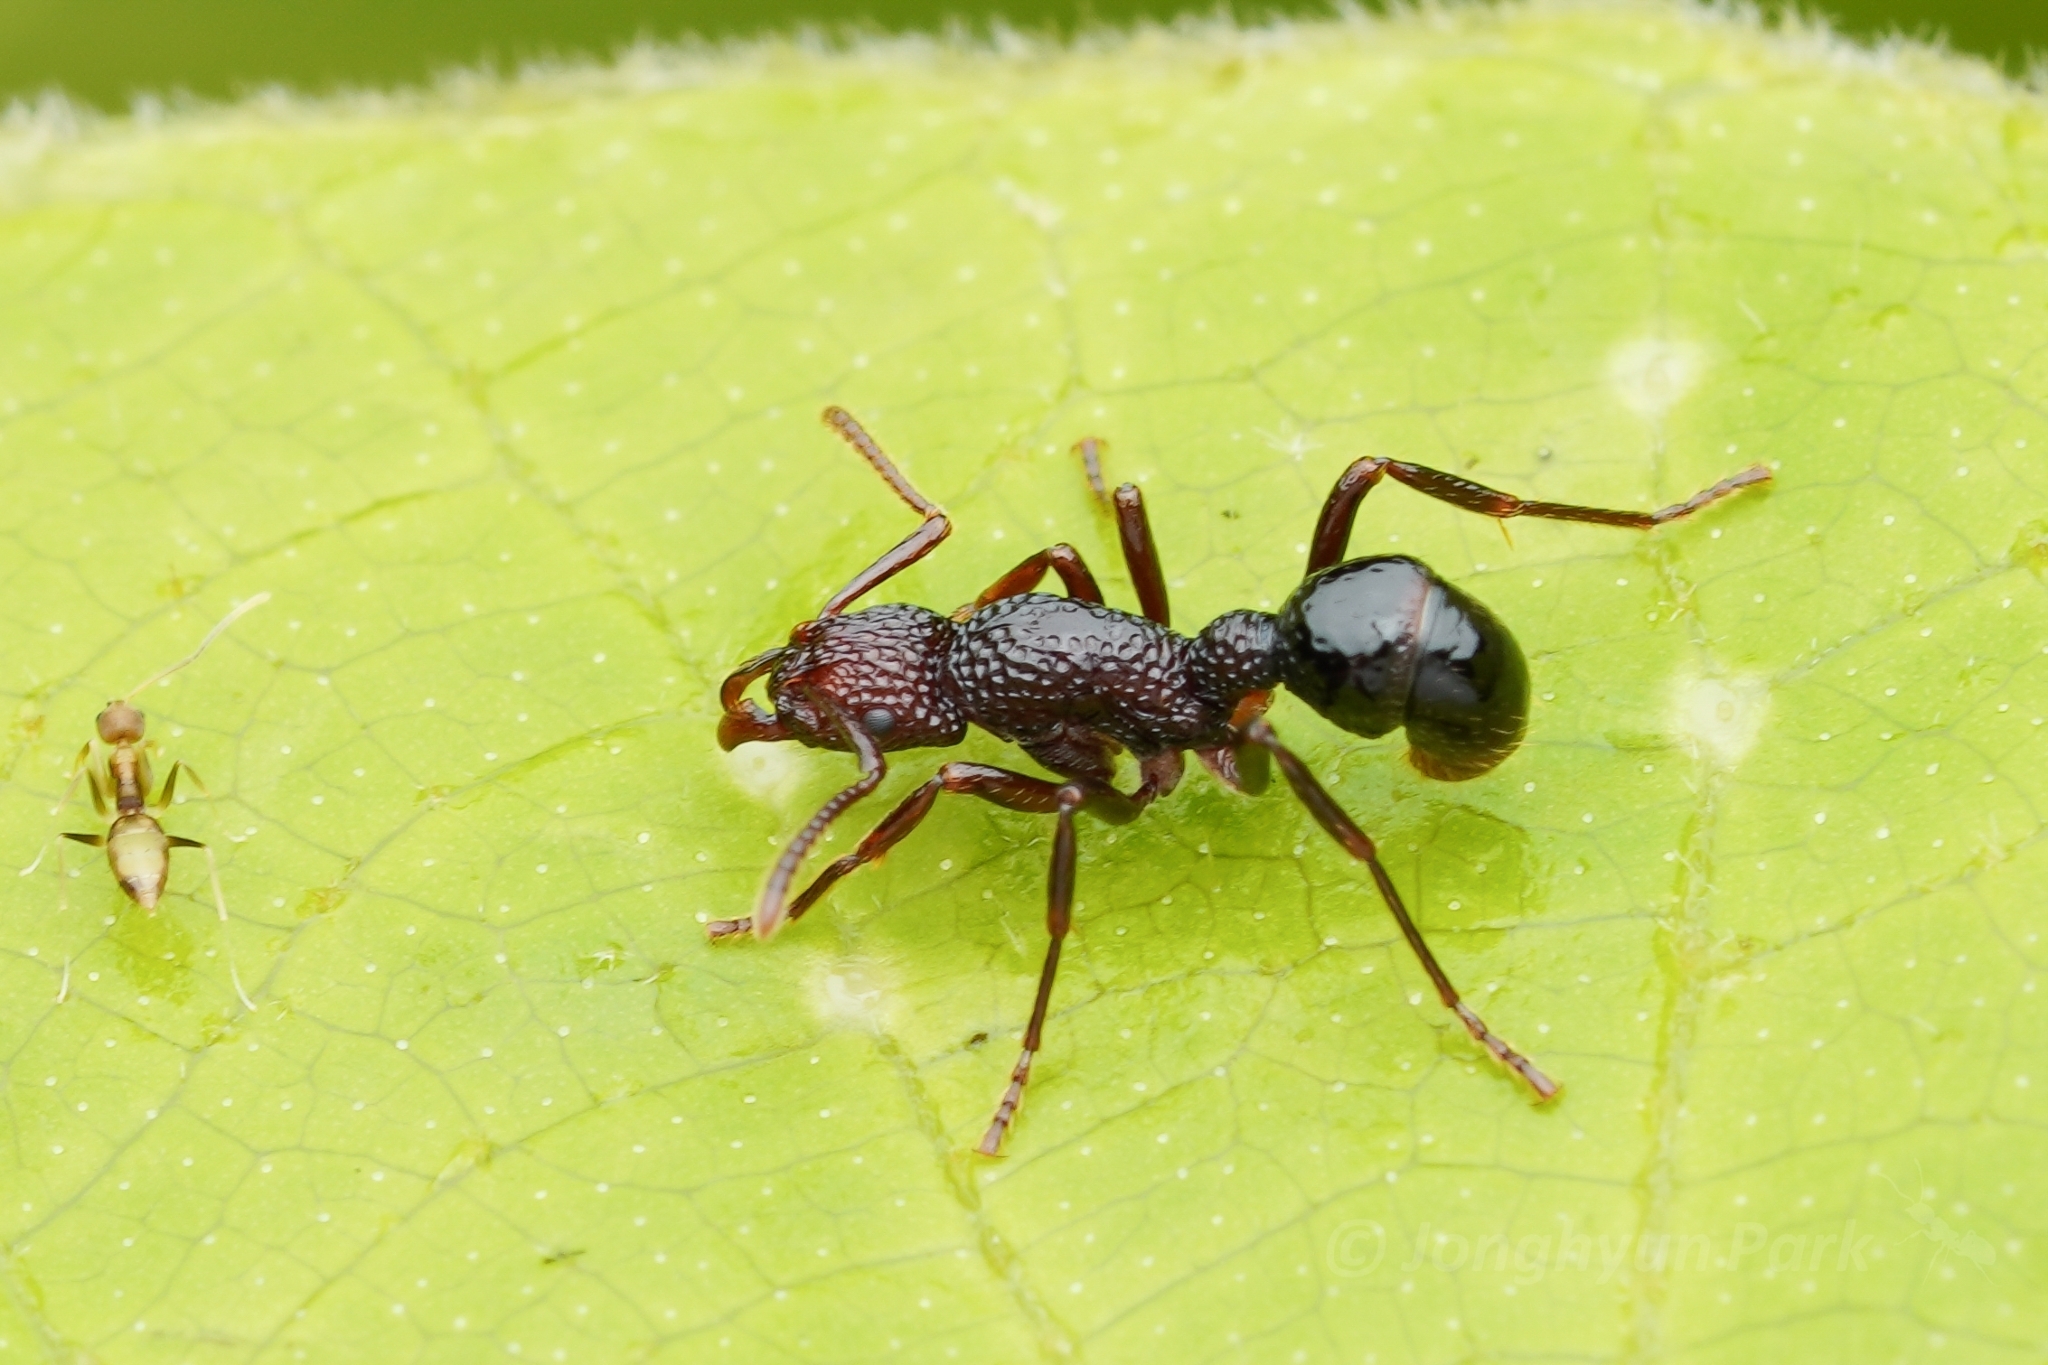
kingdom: Animalia
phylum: Arthropoda
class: Insecta
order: Hymenoptera
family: Formicidae
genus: Stictoponera
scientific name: Stictoponera
